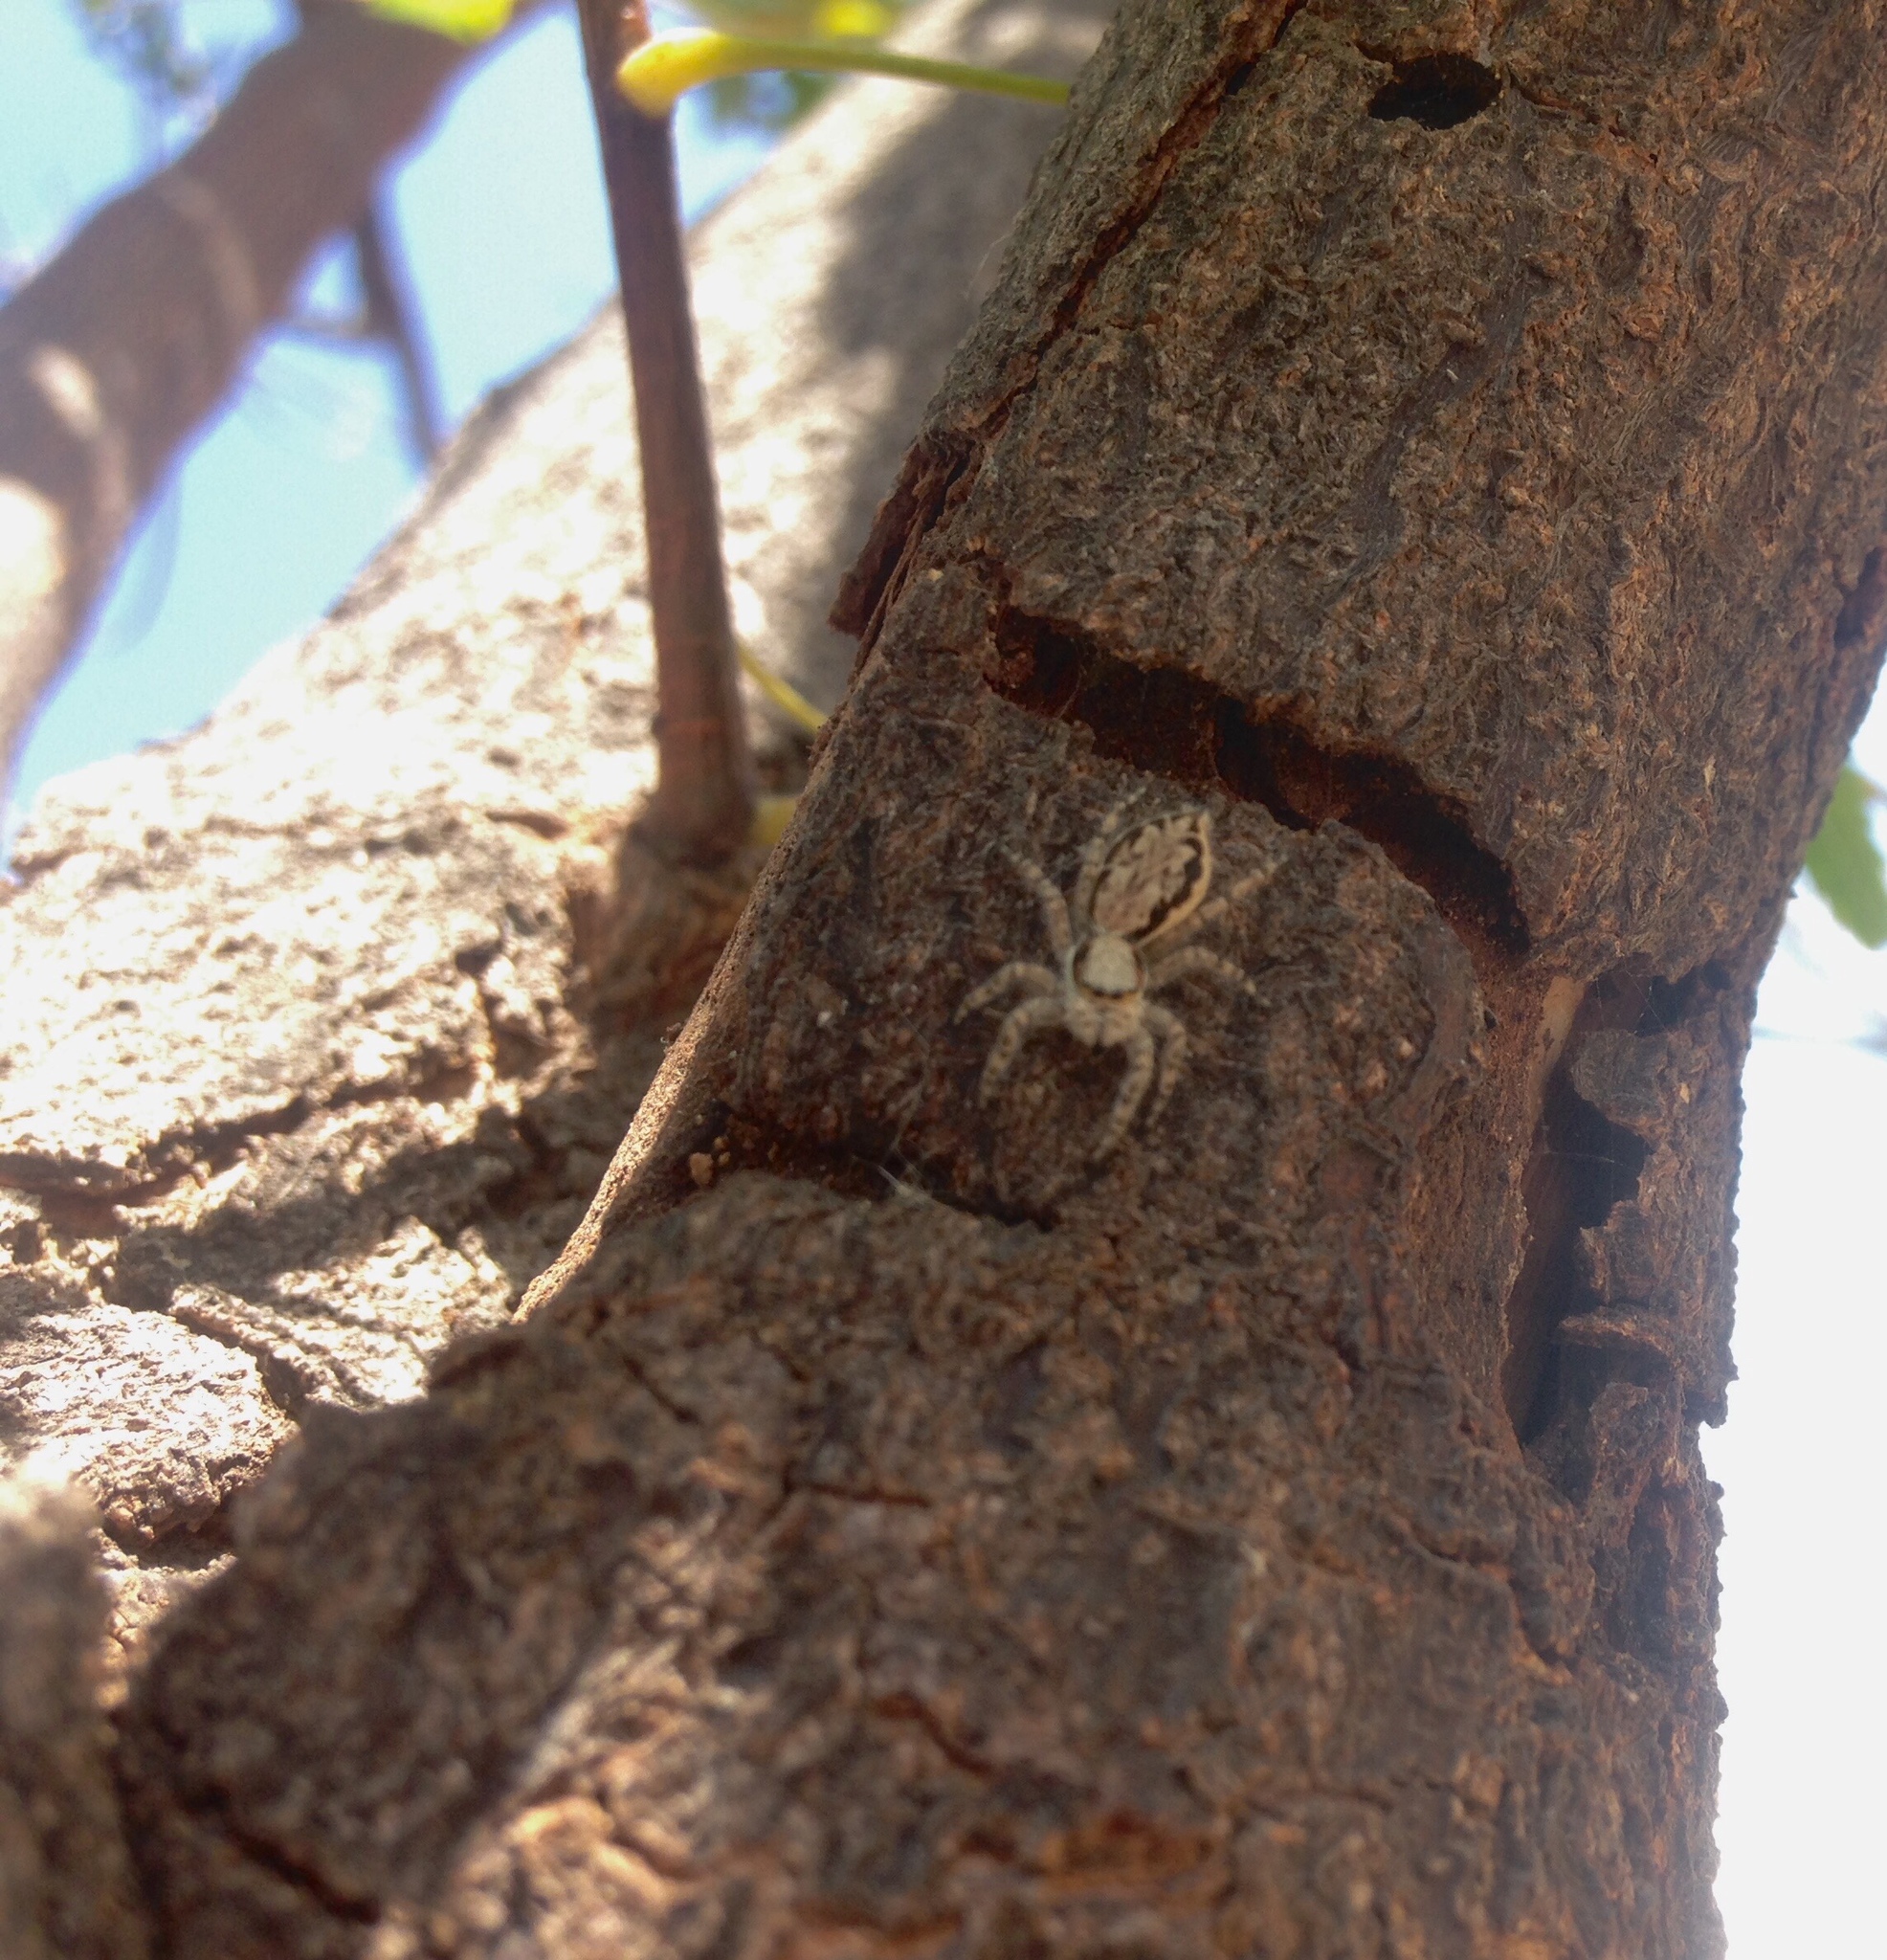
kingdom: Animalia
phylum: Arthropoda
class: Arachnida
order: Araneae
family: Salticidae
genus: Menemerus
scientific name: Menemerus bivittatus
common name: Gray wall jumper
